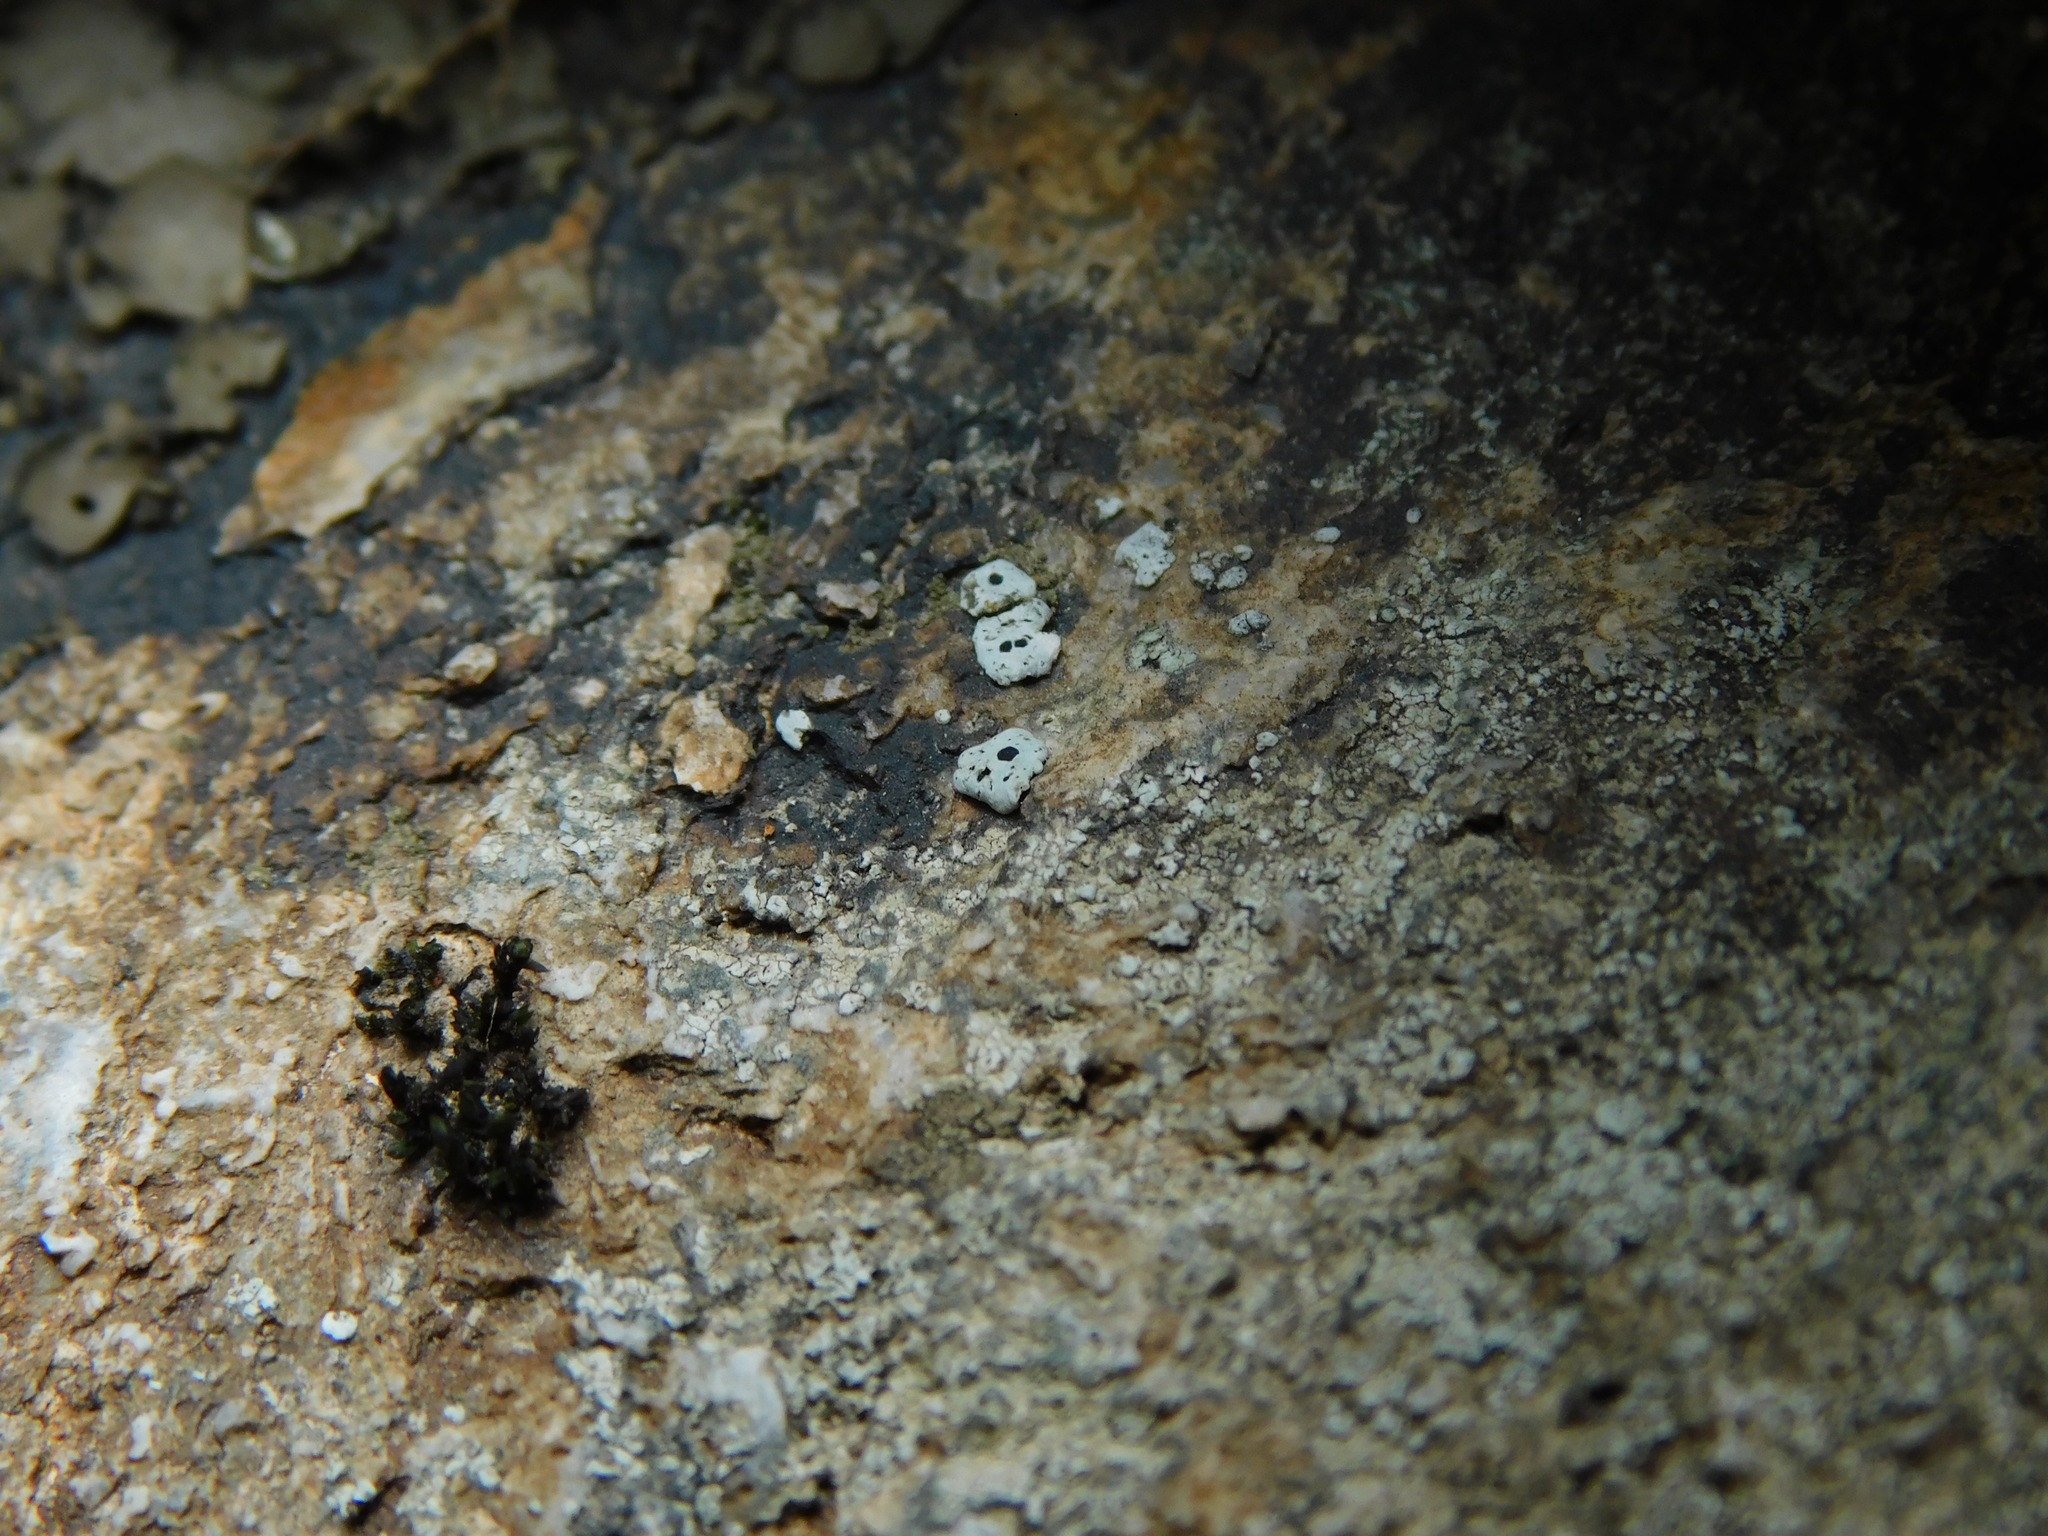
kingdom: Fungi
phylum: Ascomycota
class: Lecanoromycetes
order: Caliciales
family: Caliciaceae
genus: Dermiscellum
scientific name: Dermiscellum oulocheilum
